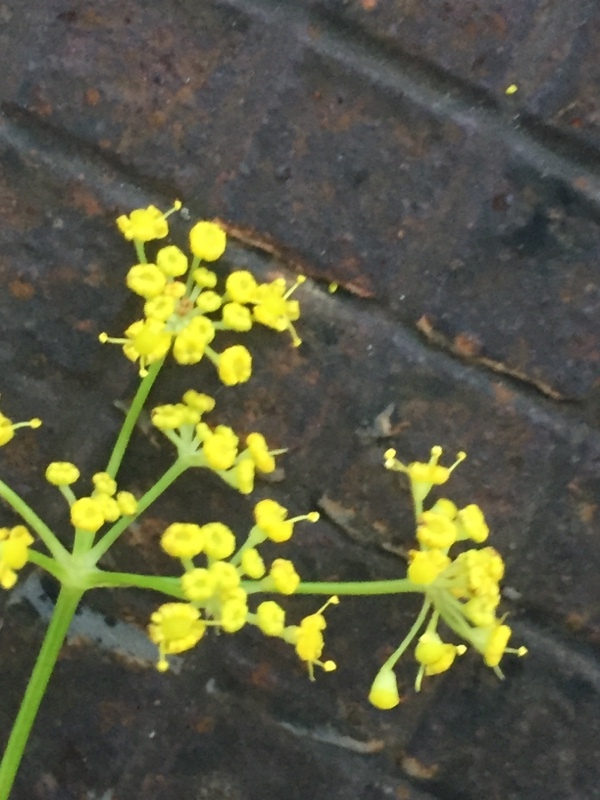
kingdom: Plantae
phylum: Tracheophyta
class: Magnoliopsida
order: Apiales
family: Apiaceae
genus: Foeniculum
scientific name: Foeniculum vulgare
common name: Fennel
